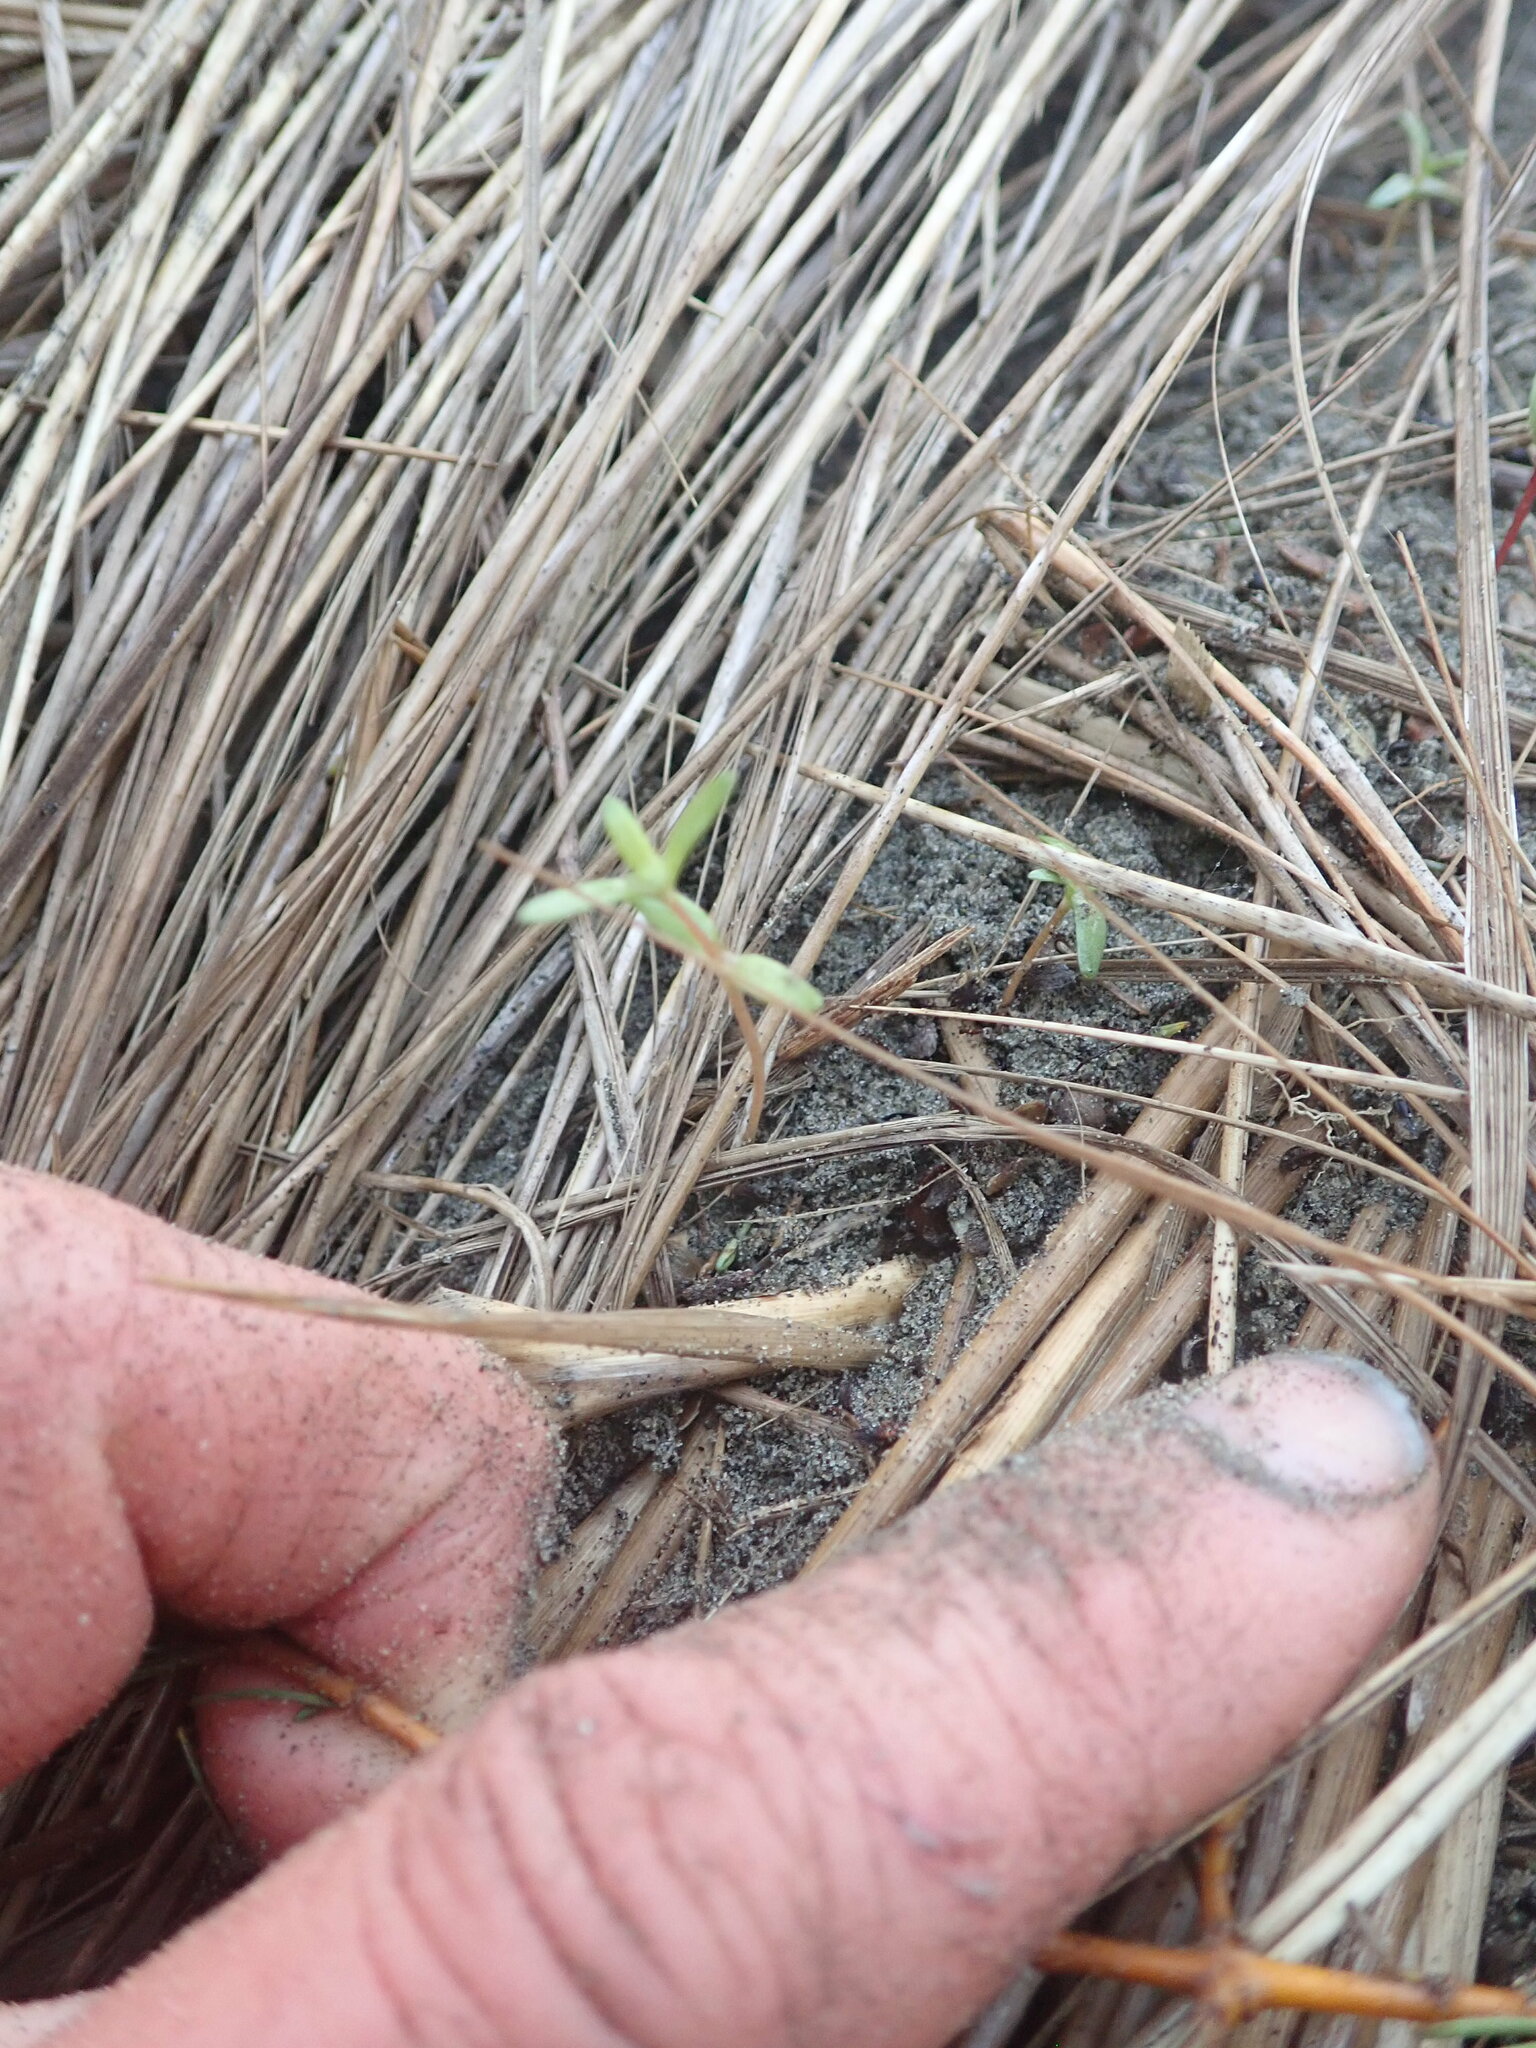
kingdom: Plantae
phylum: Tracheophyta
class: Magnoliopsida
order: Gentianales
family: Rubiaceae
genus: Coprosma
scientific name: Coprosma acerosa
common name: Sand coprosma
